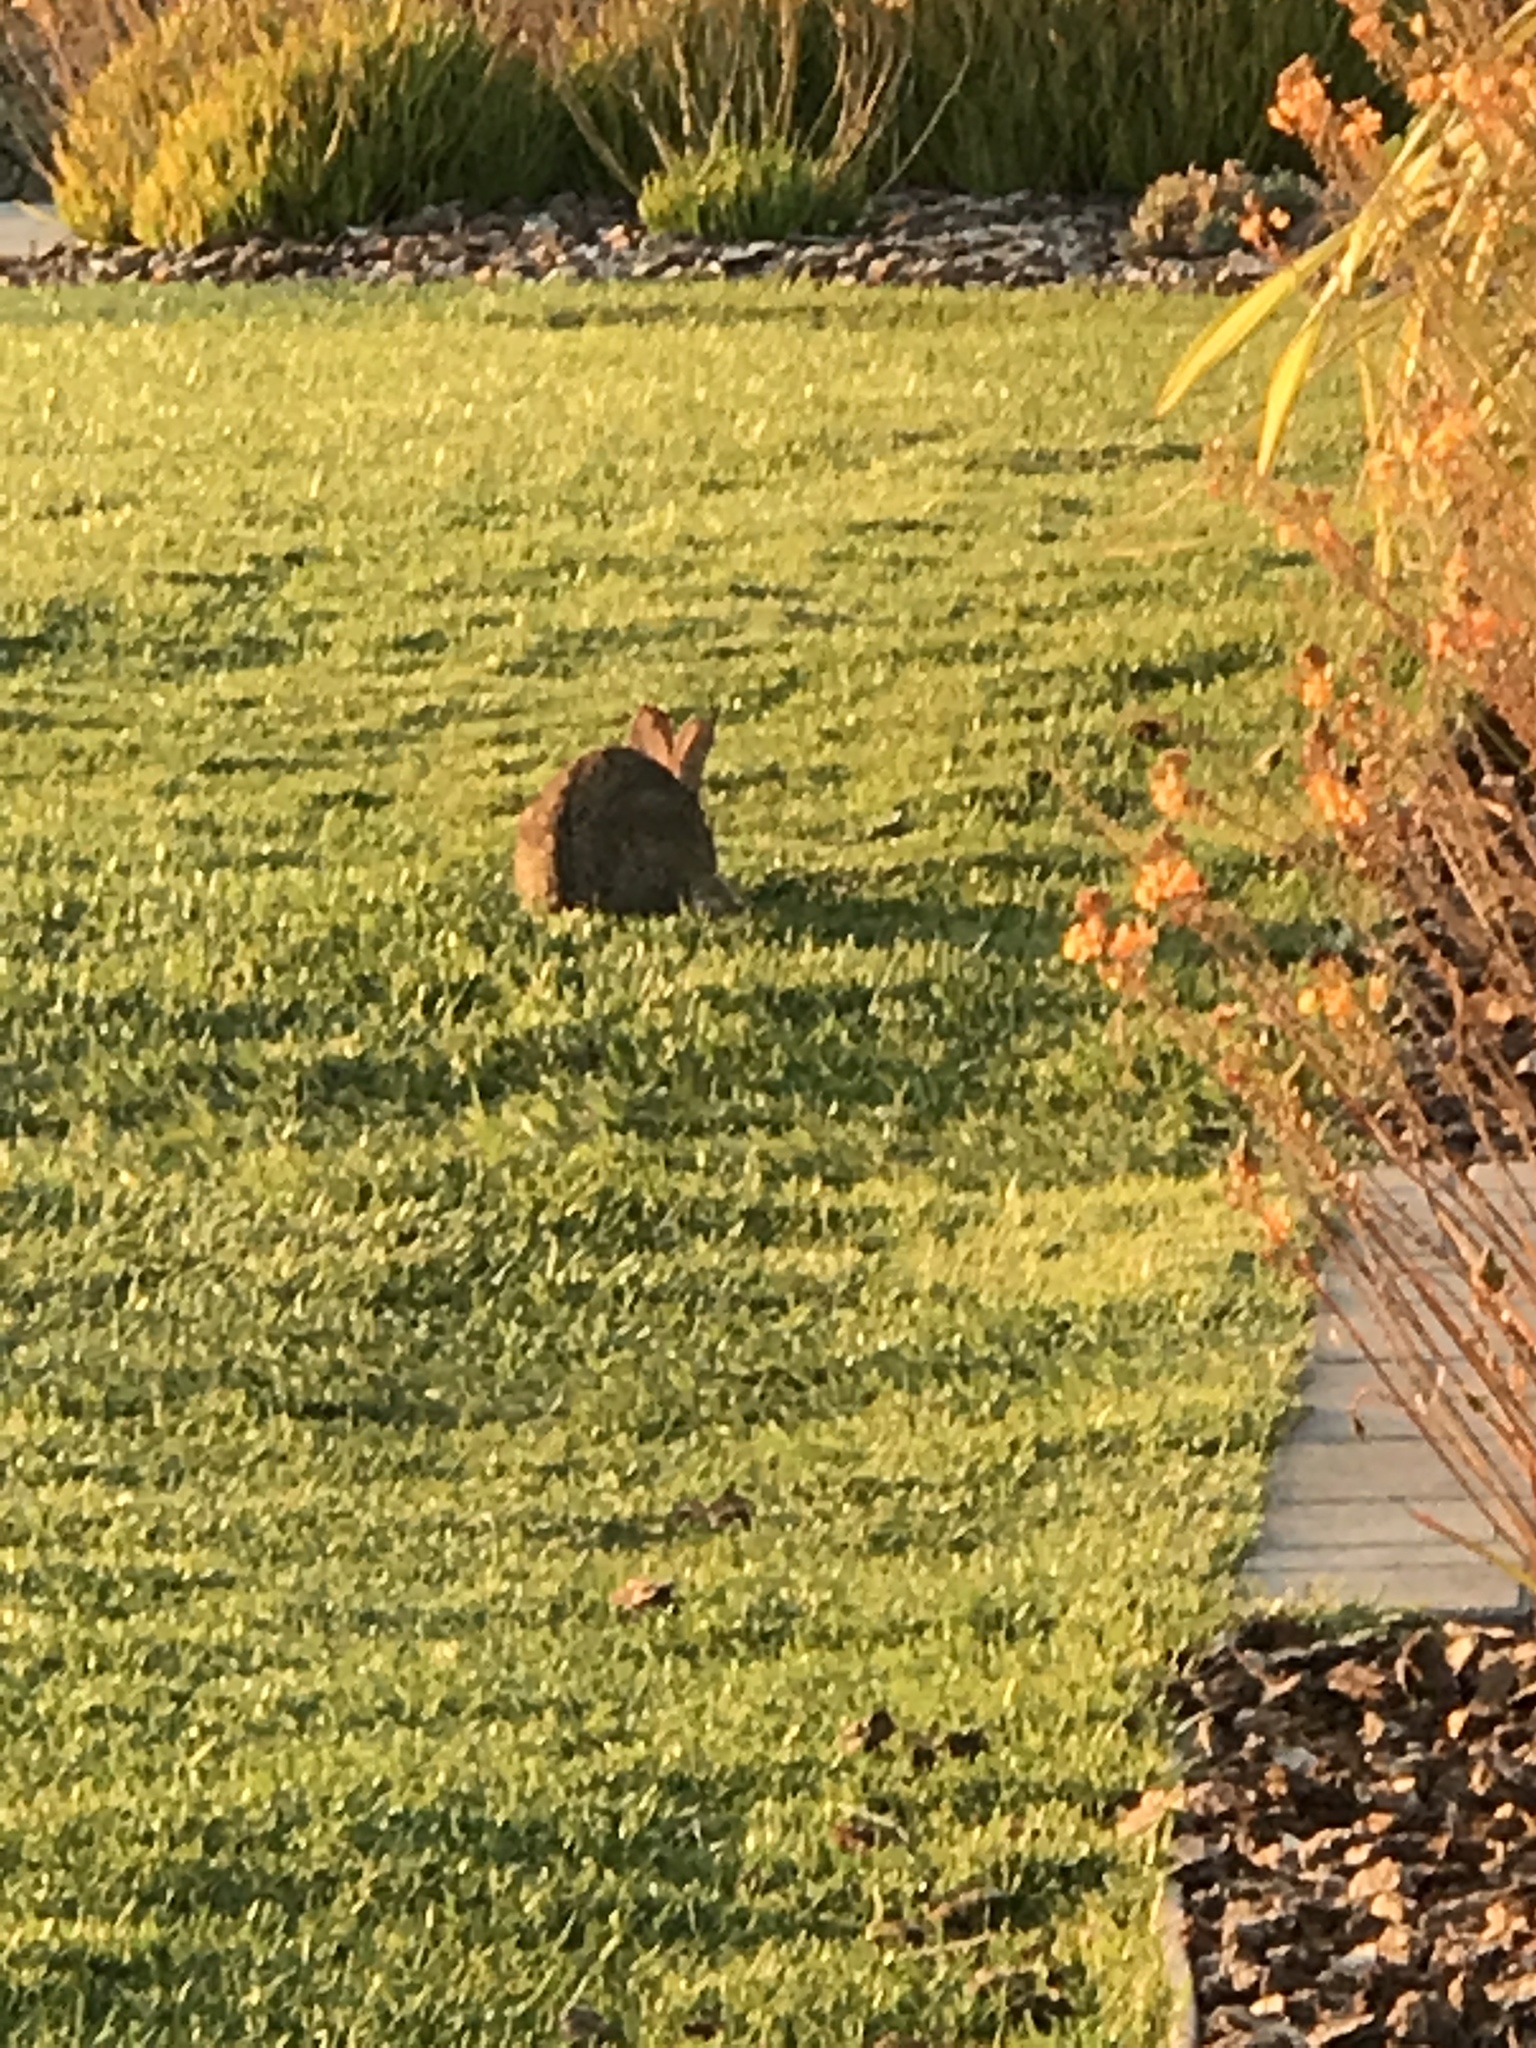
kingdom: Animalia
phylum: Chordata
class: Mammalia
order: Lagomorpha
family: Leporidae
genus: Sylvilagus
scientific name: Sylvilagus audubonii
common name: Desert cottontail
